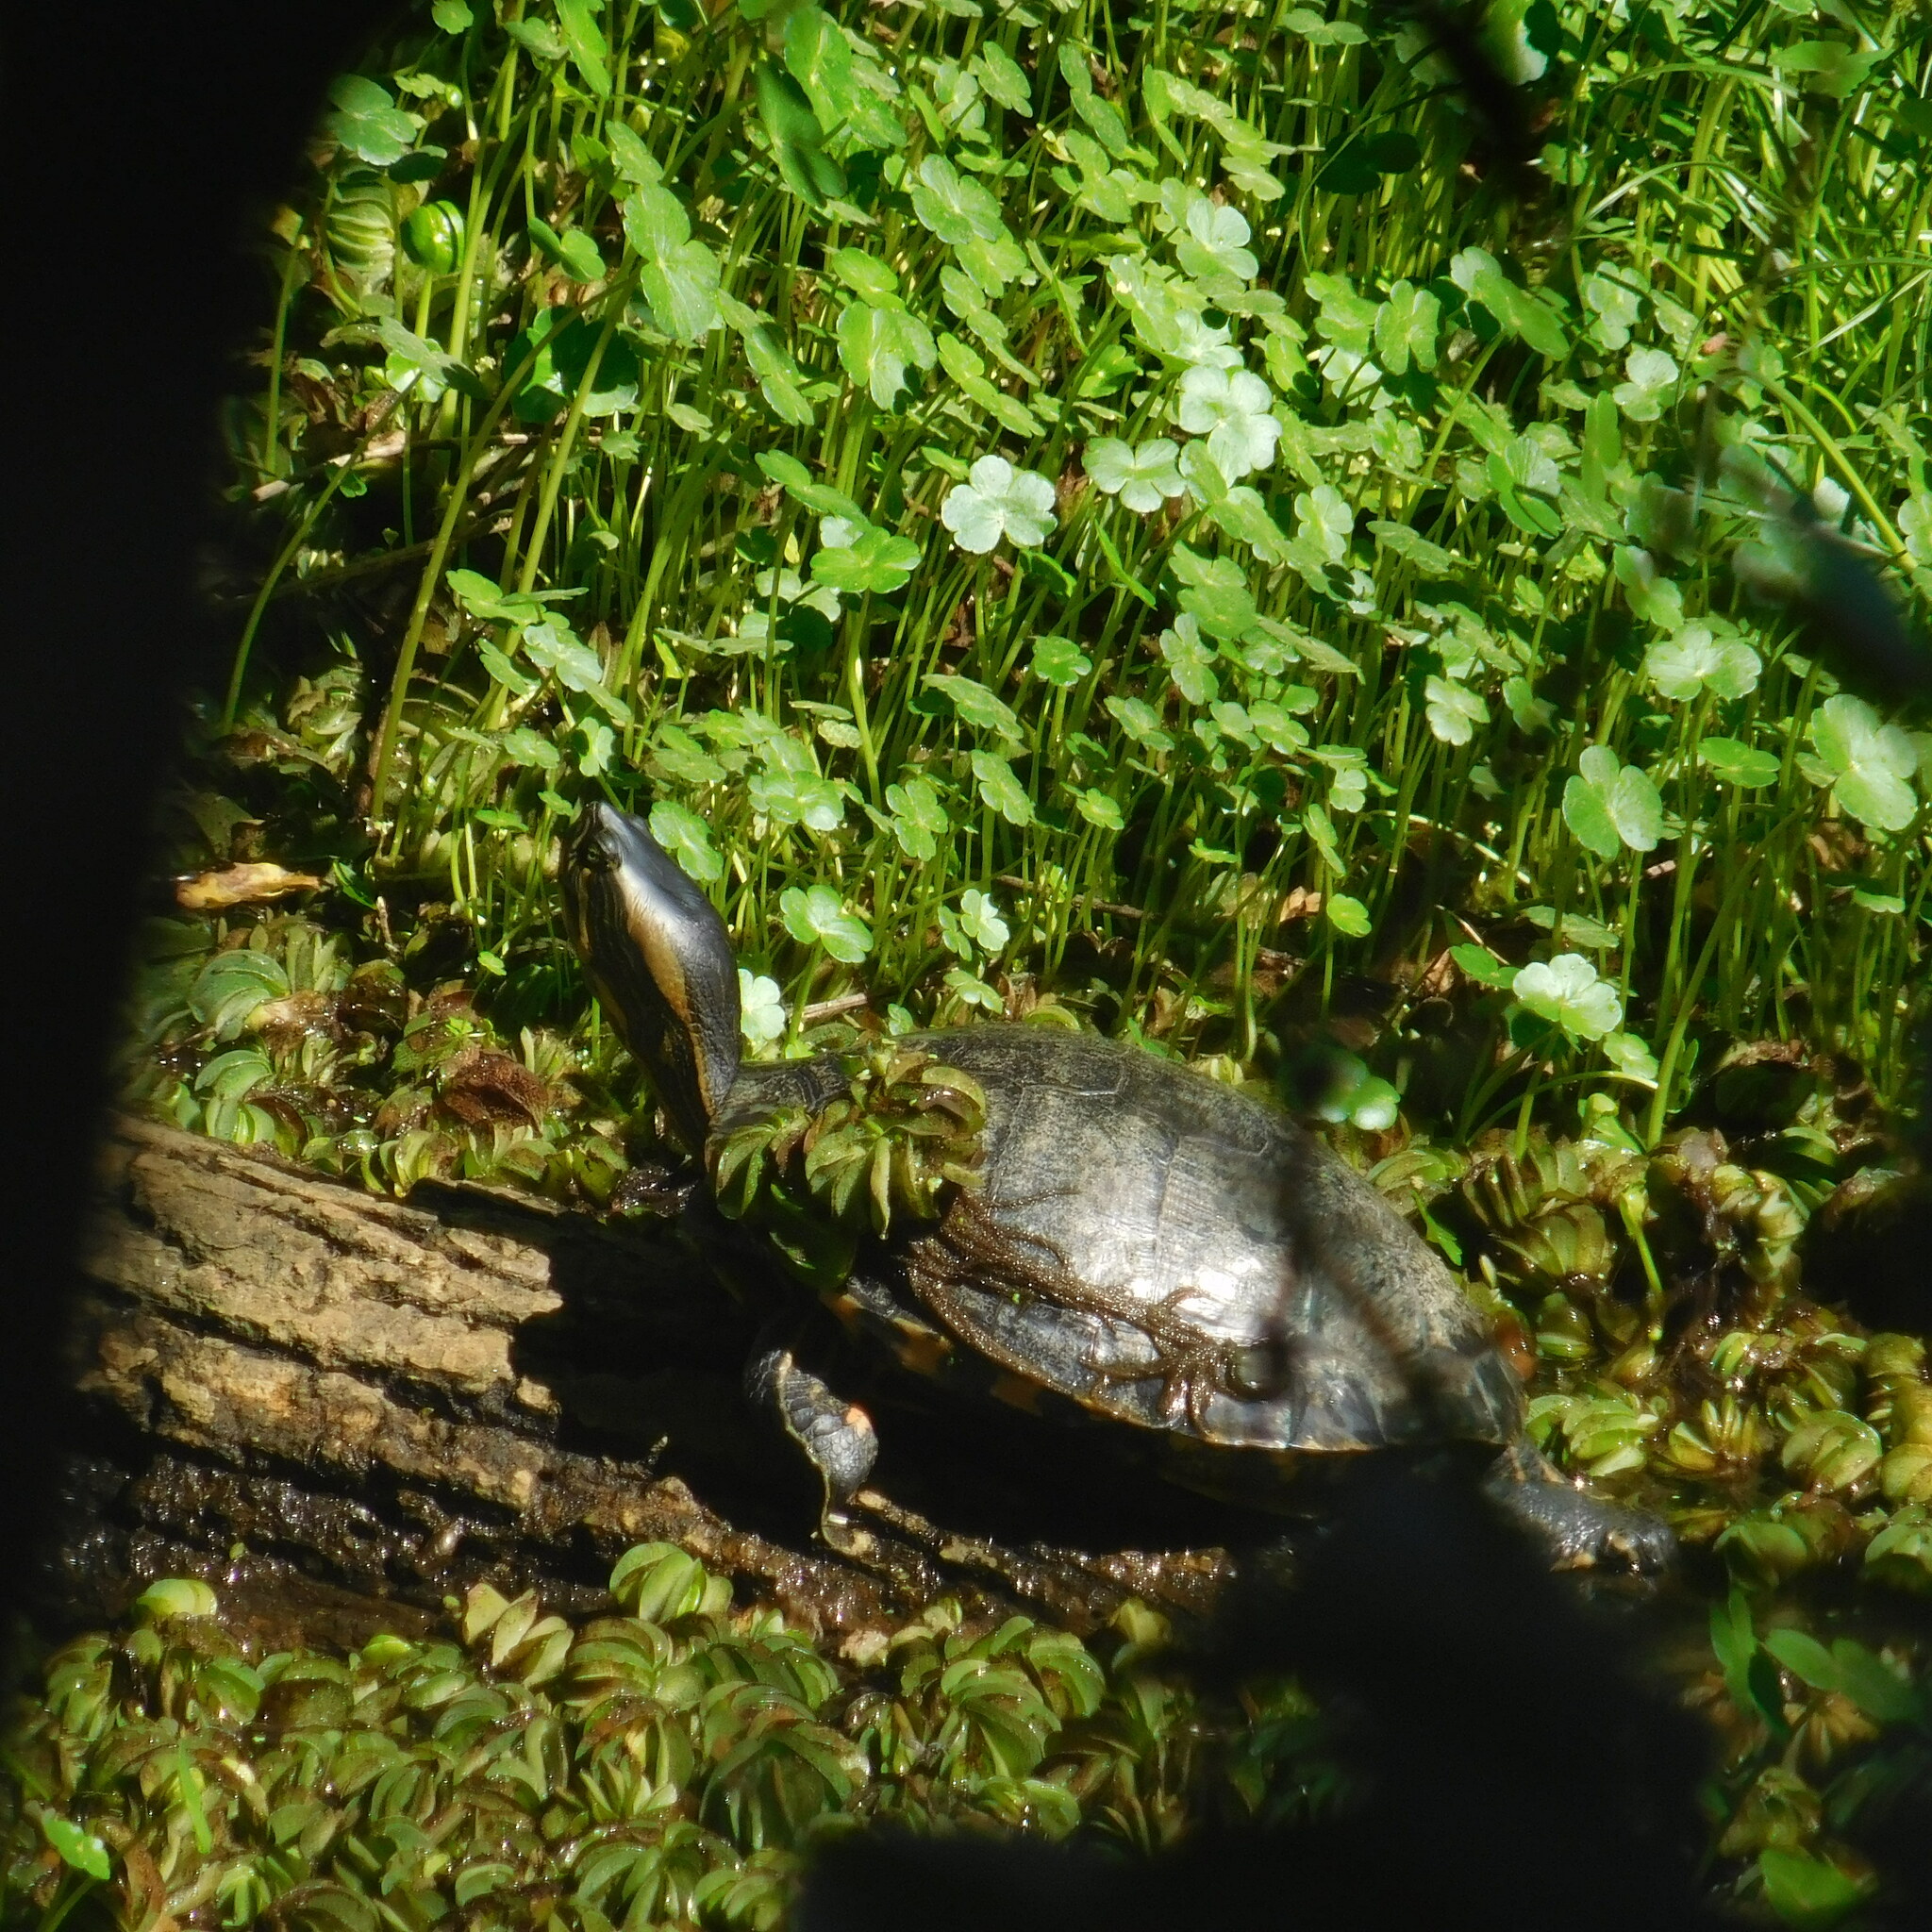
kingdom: Animalia
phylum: Chordata
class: Testudines
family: Emydidae
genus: Trachemys
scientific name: Trachemys dorbigni
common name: Black-bellied slider
